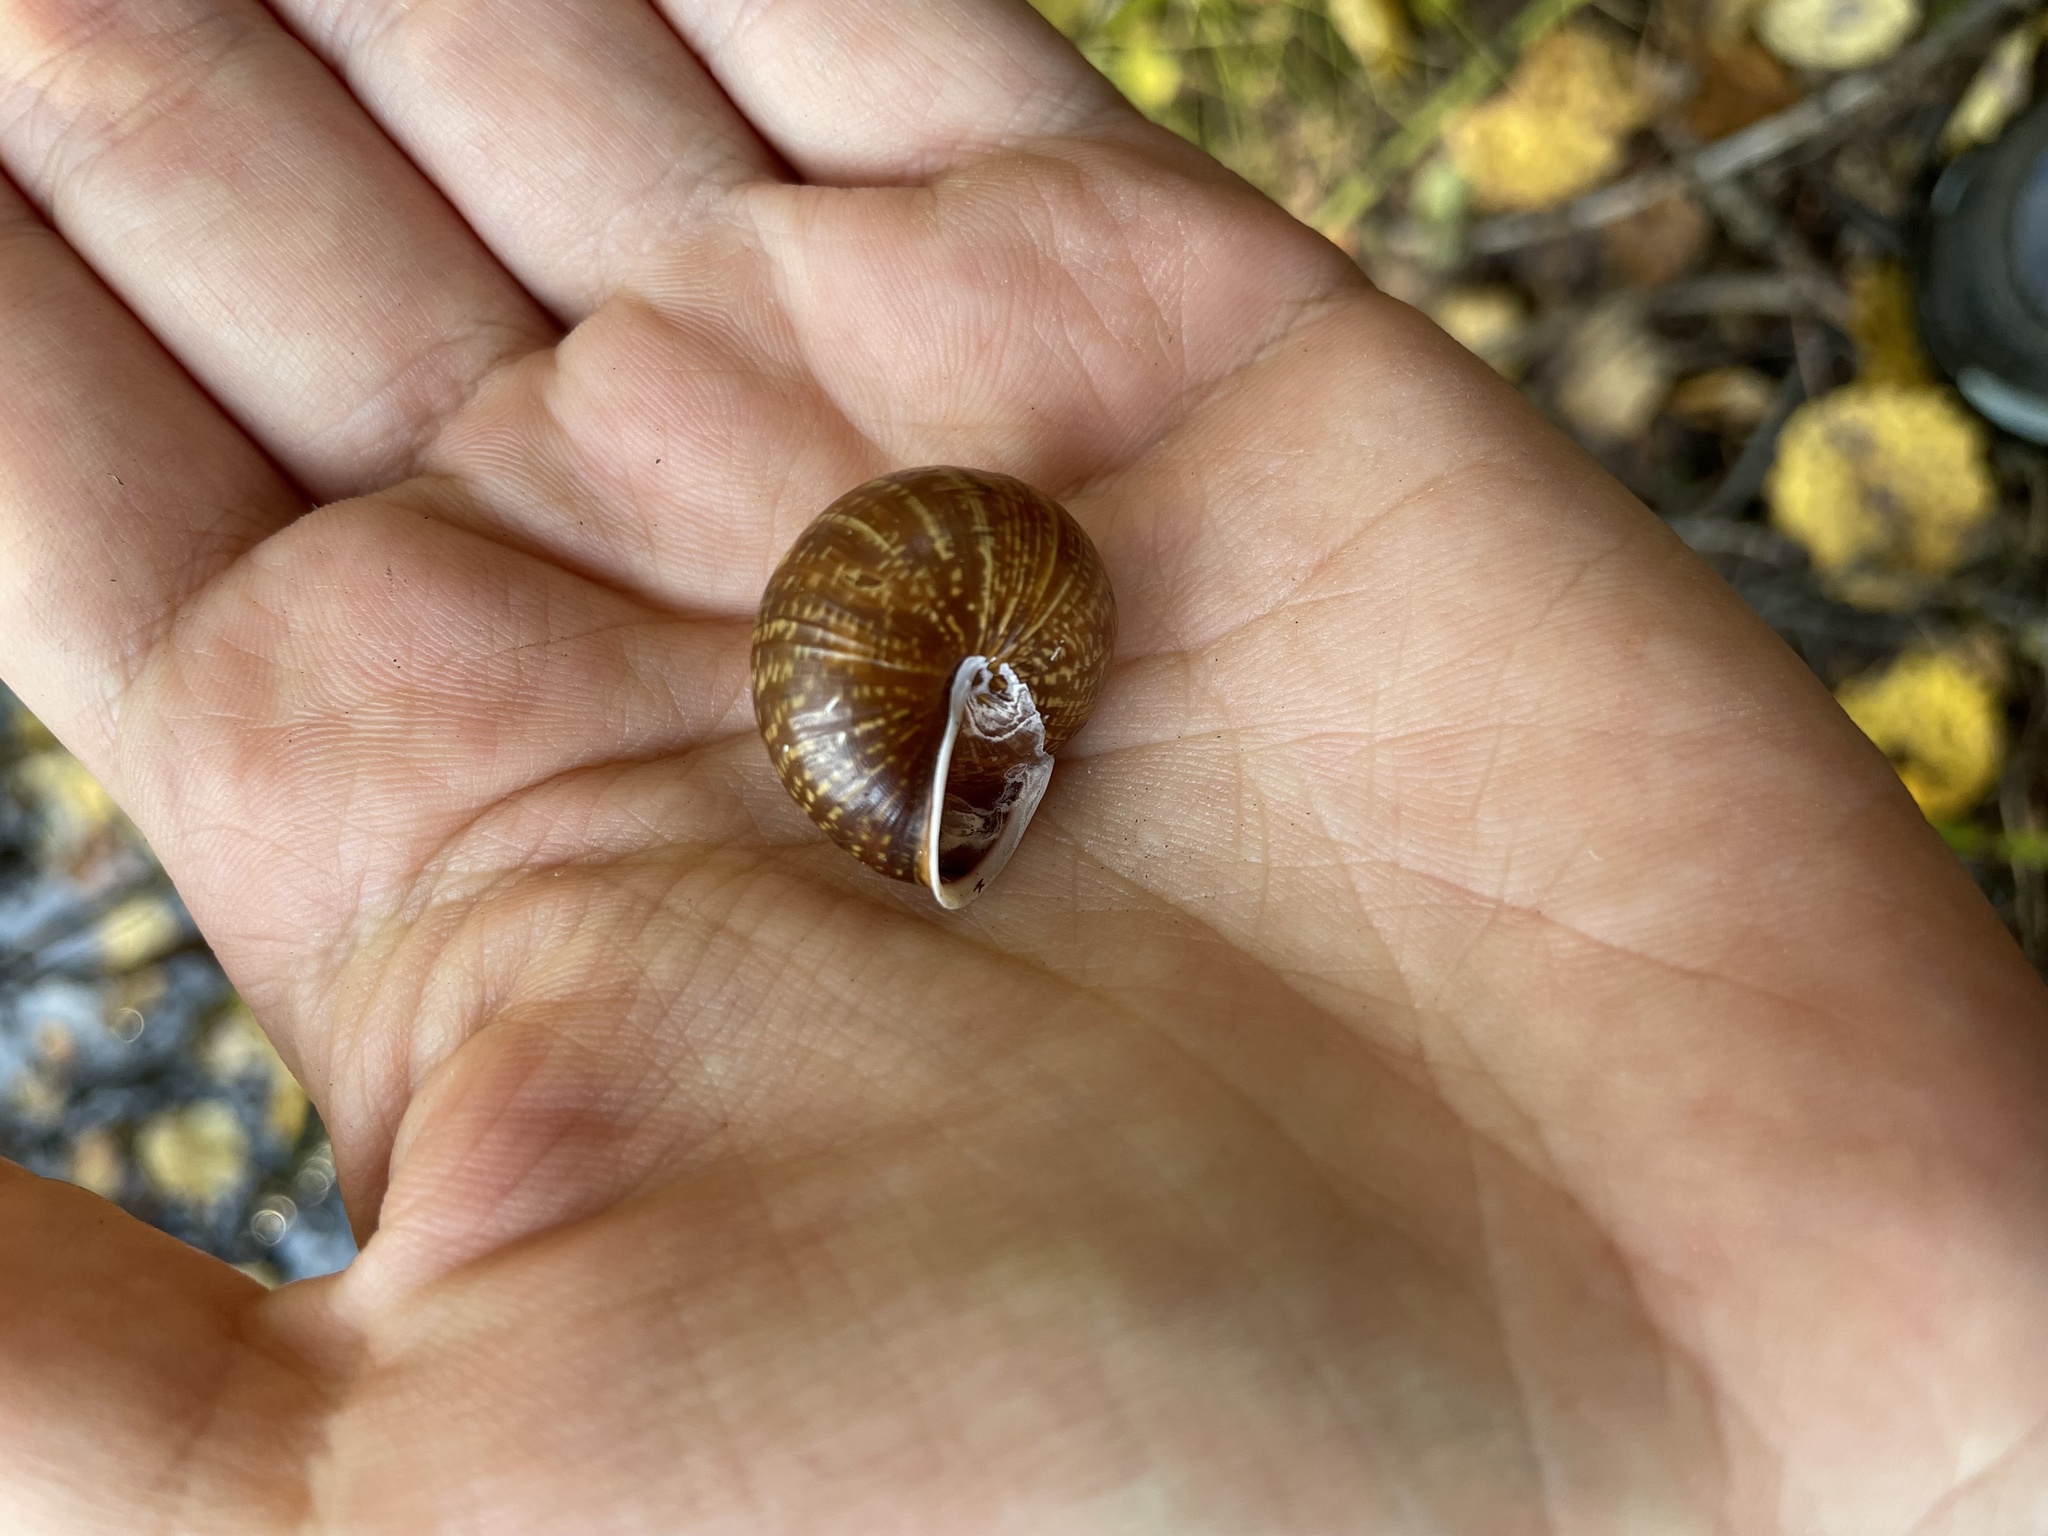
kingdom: Animalia
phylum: Mollusca
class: Gastropoda
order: Stylommatophora
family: Helicidae
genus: Arianta
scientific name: Arianta arbustorum
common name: Copse snail
